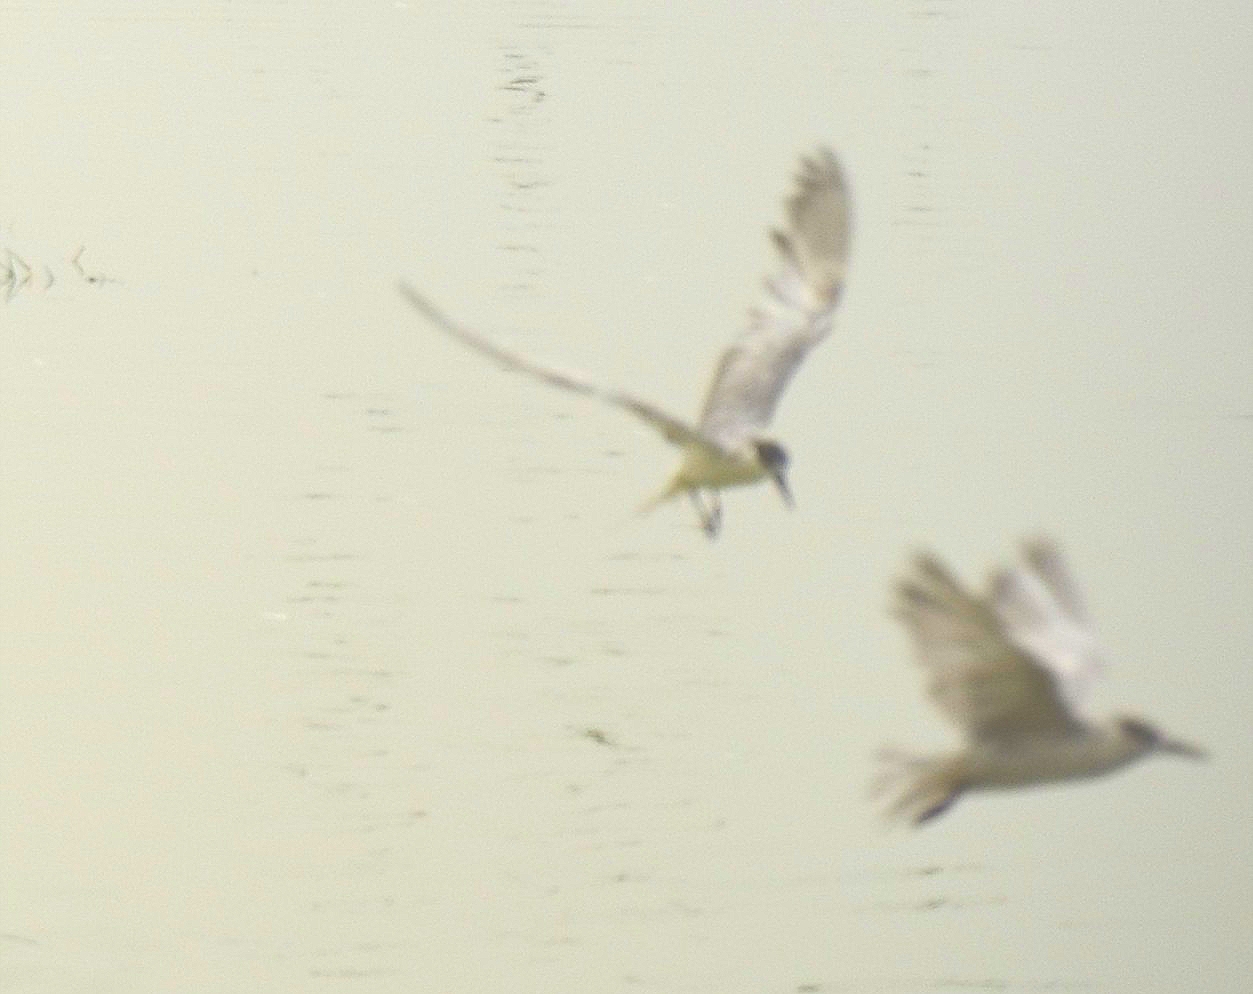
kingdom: Animalia
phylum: Chordata
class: Aves
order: Charadriiformes
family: Laridae
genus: Chlidonias
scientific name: Chlidonias hybrida
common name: Whiskered tern
